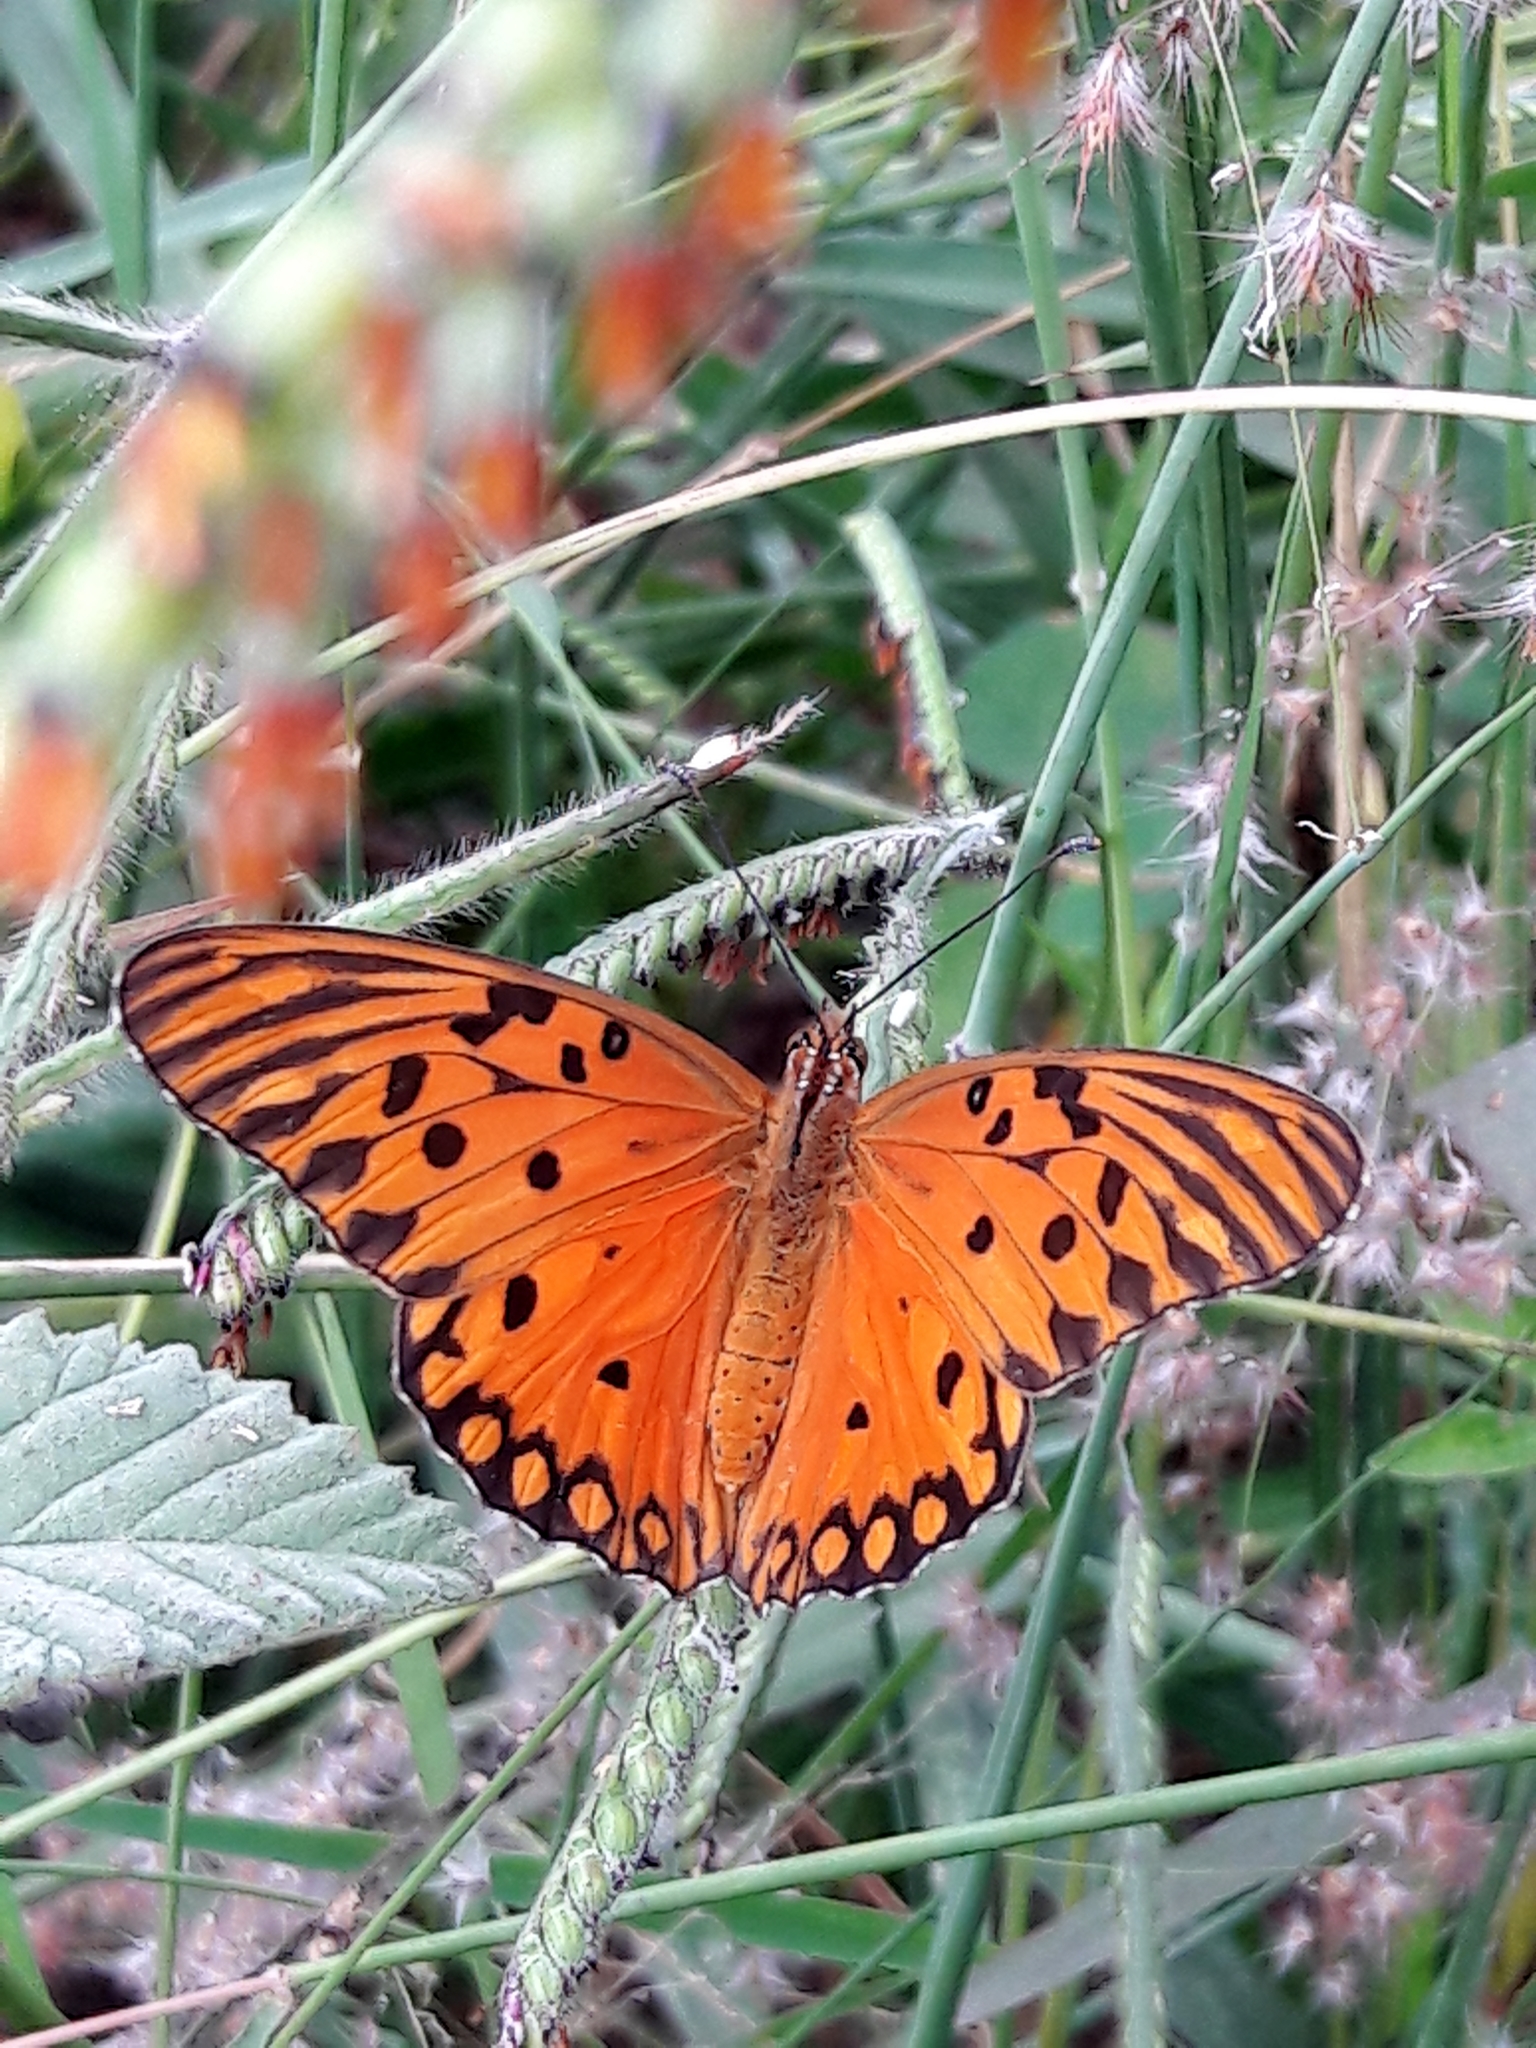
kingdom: Animalia
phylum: Arthropoda
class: Insecta
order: Lepidoptera
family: Nymphalidae
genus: Dione
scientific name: Dione vanillae
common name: Gulf fritillary
